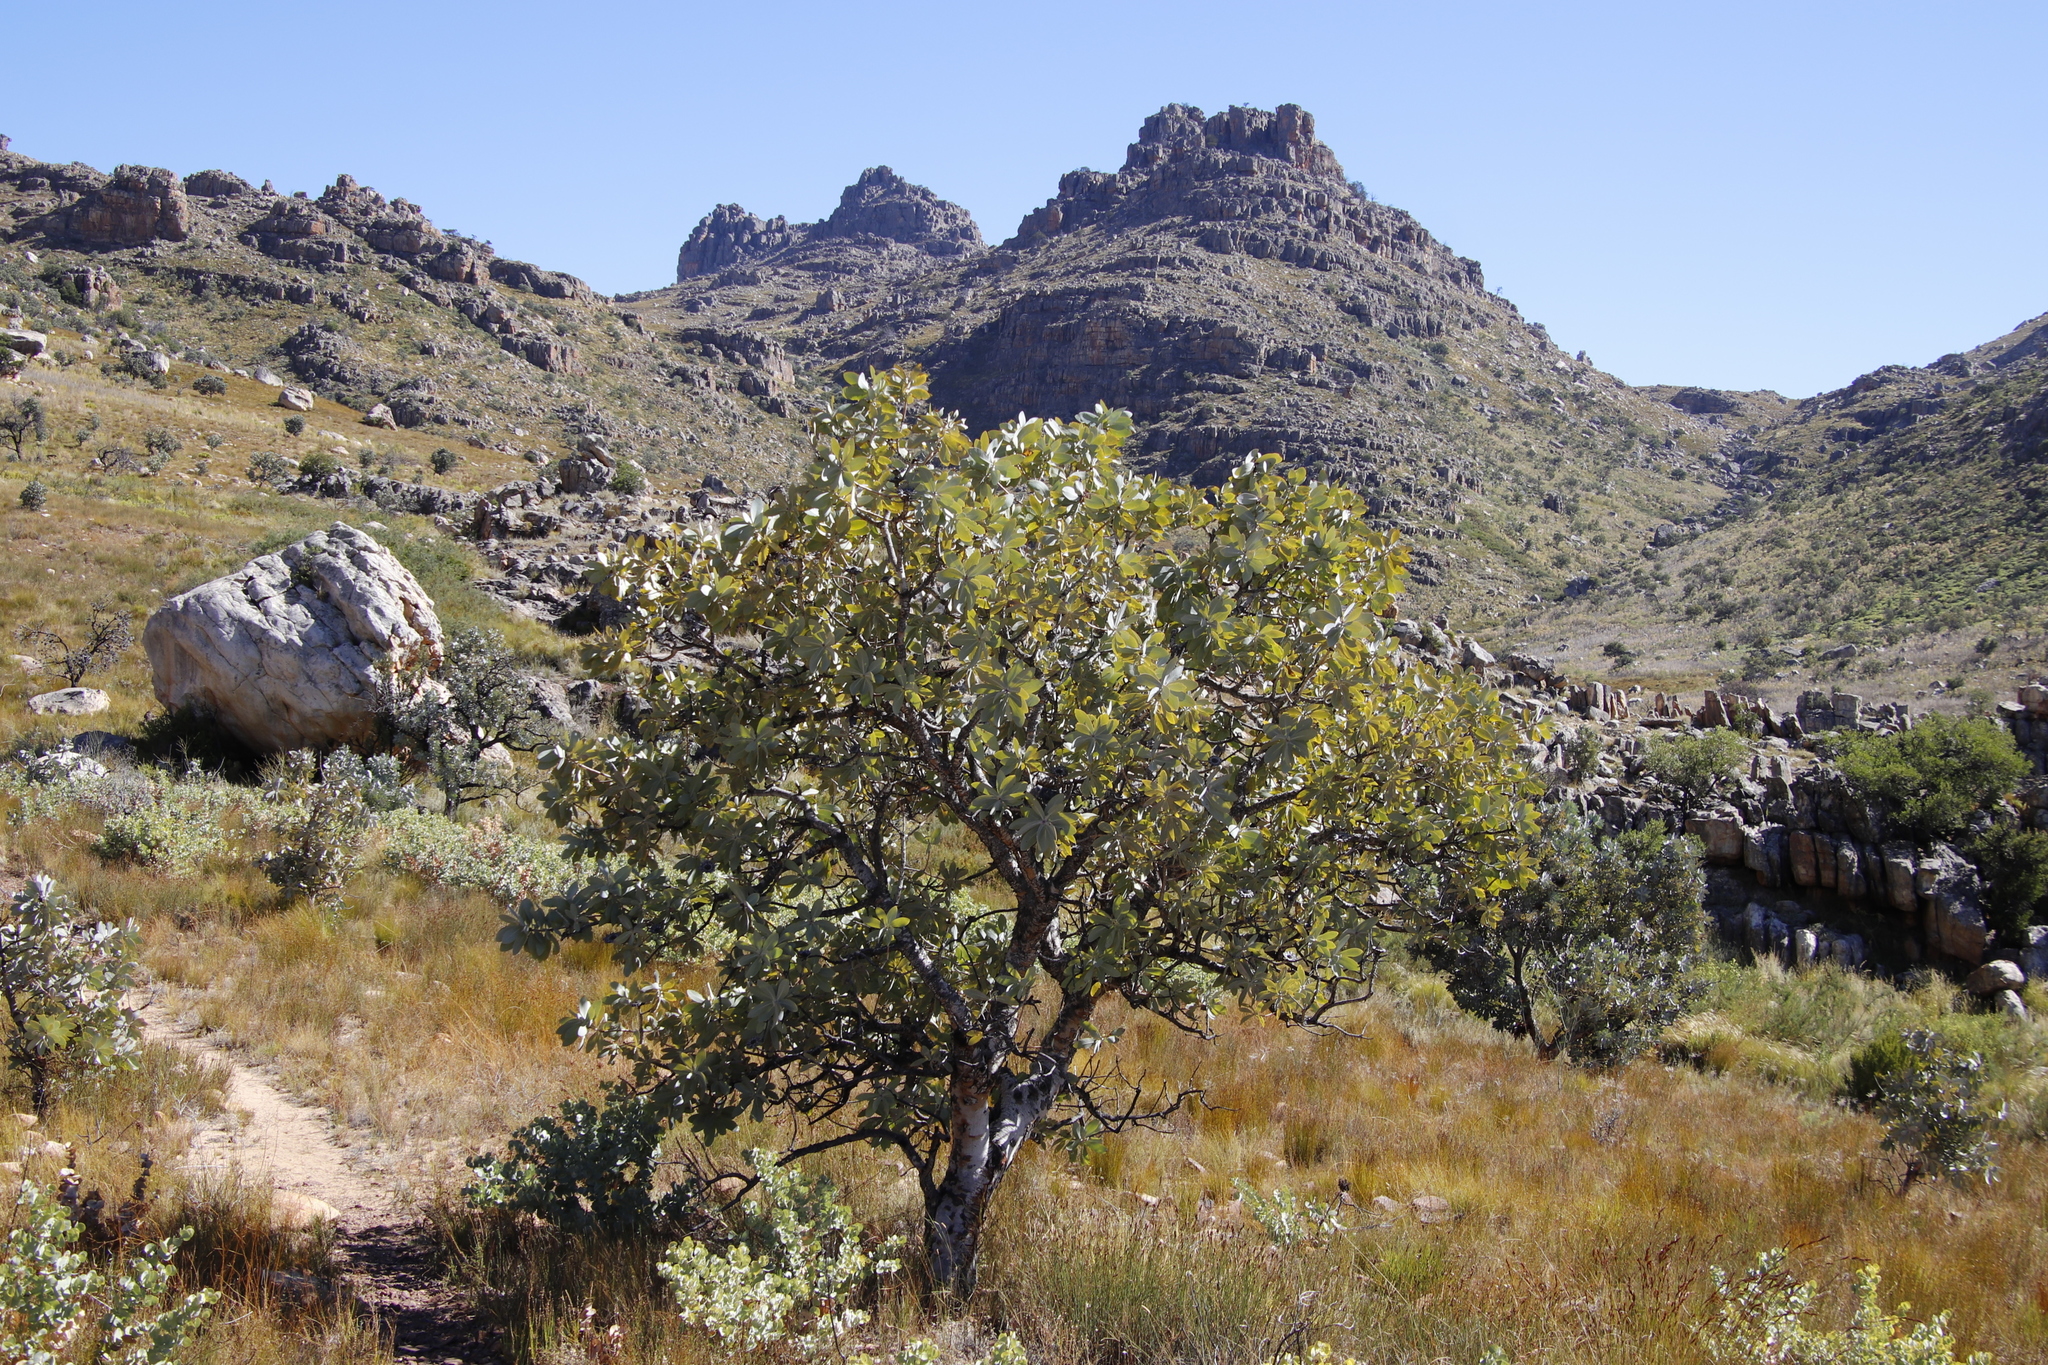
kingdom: Plantae
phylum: Tracheophyta
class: Magnoliopsida
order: Proteales
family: Proteaceae
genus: Protea
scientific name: Protea nitida
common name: Tree protea
